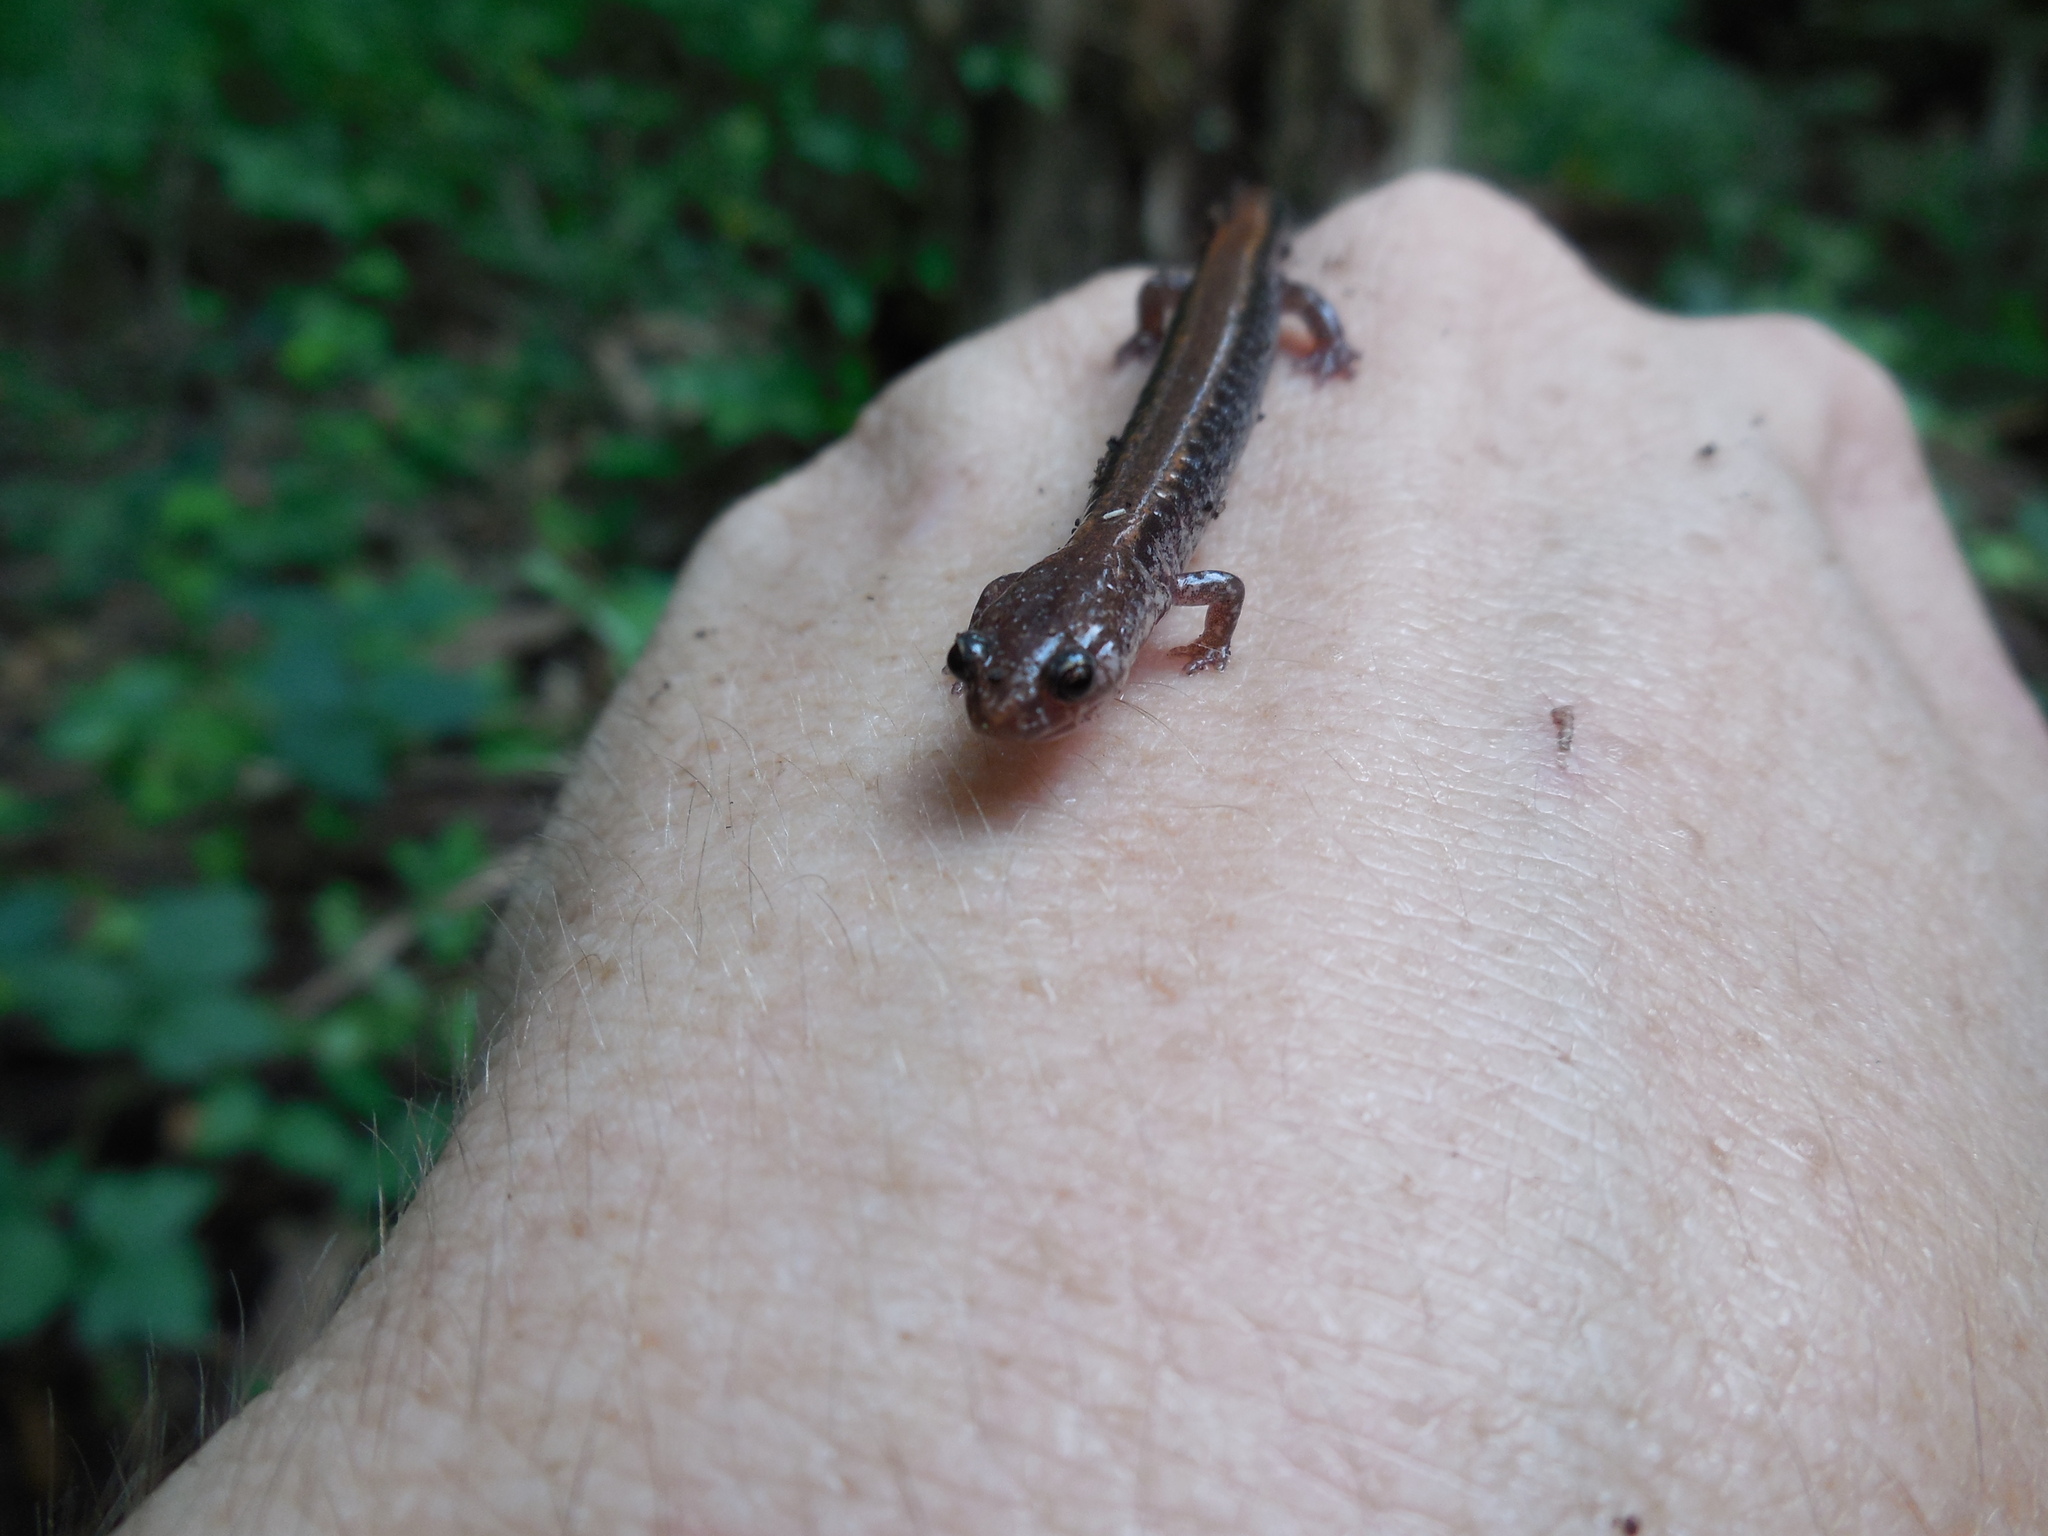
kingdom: Animalia
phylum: Chordata
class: Amphibia
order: Caudata
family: Plethodontidae
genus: Plethodon
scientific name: Plethodon cinereus
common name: Redback salamander
